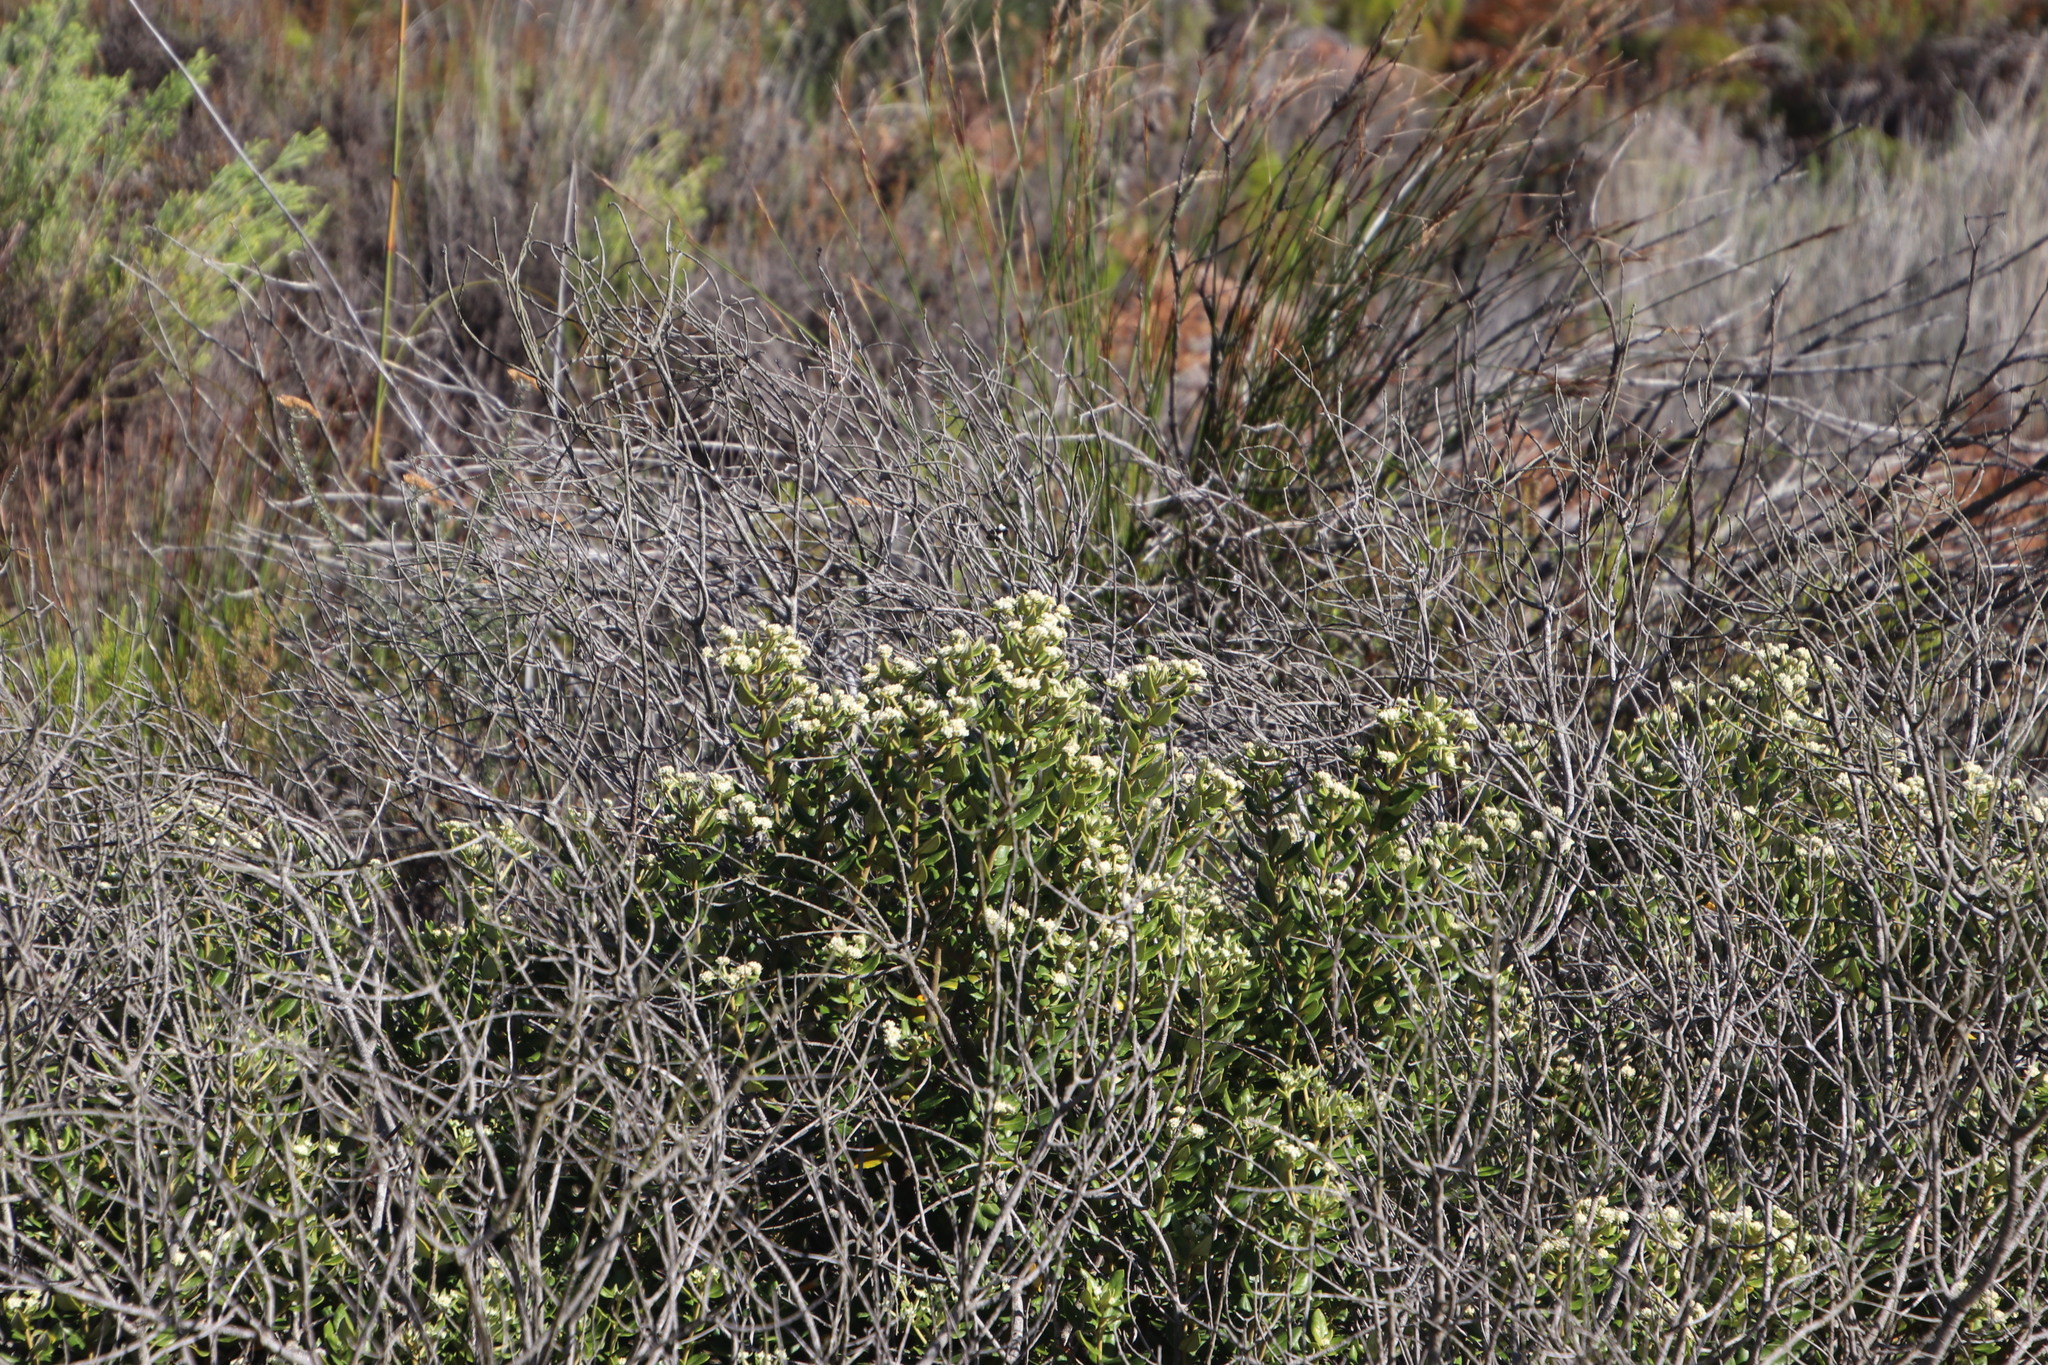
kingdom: Plantae
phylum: Tracheophyta
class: Magnoliopsida
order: Rosales
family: Rhamnaceae
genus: Phylica
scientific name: Phylica buxifolia
